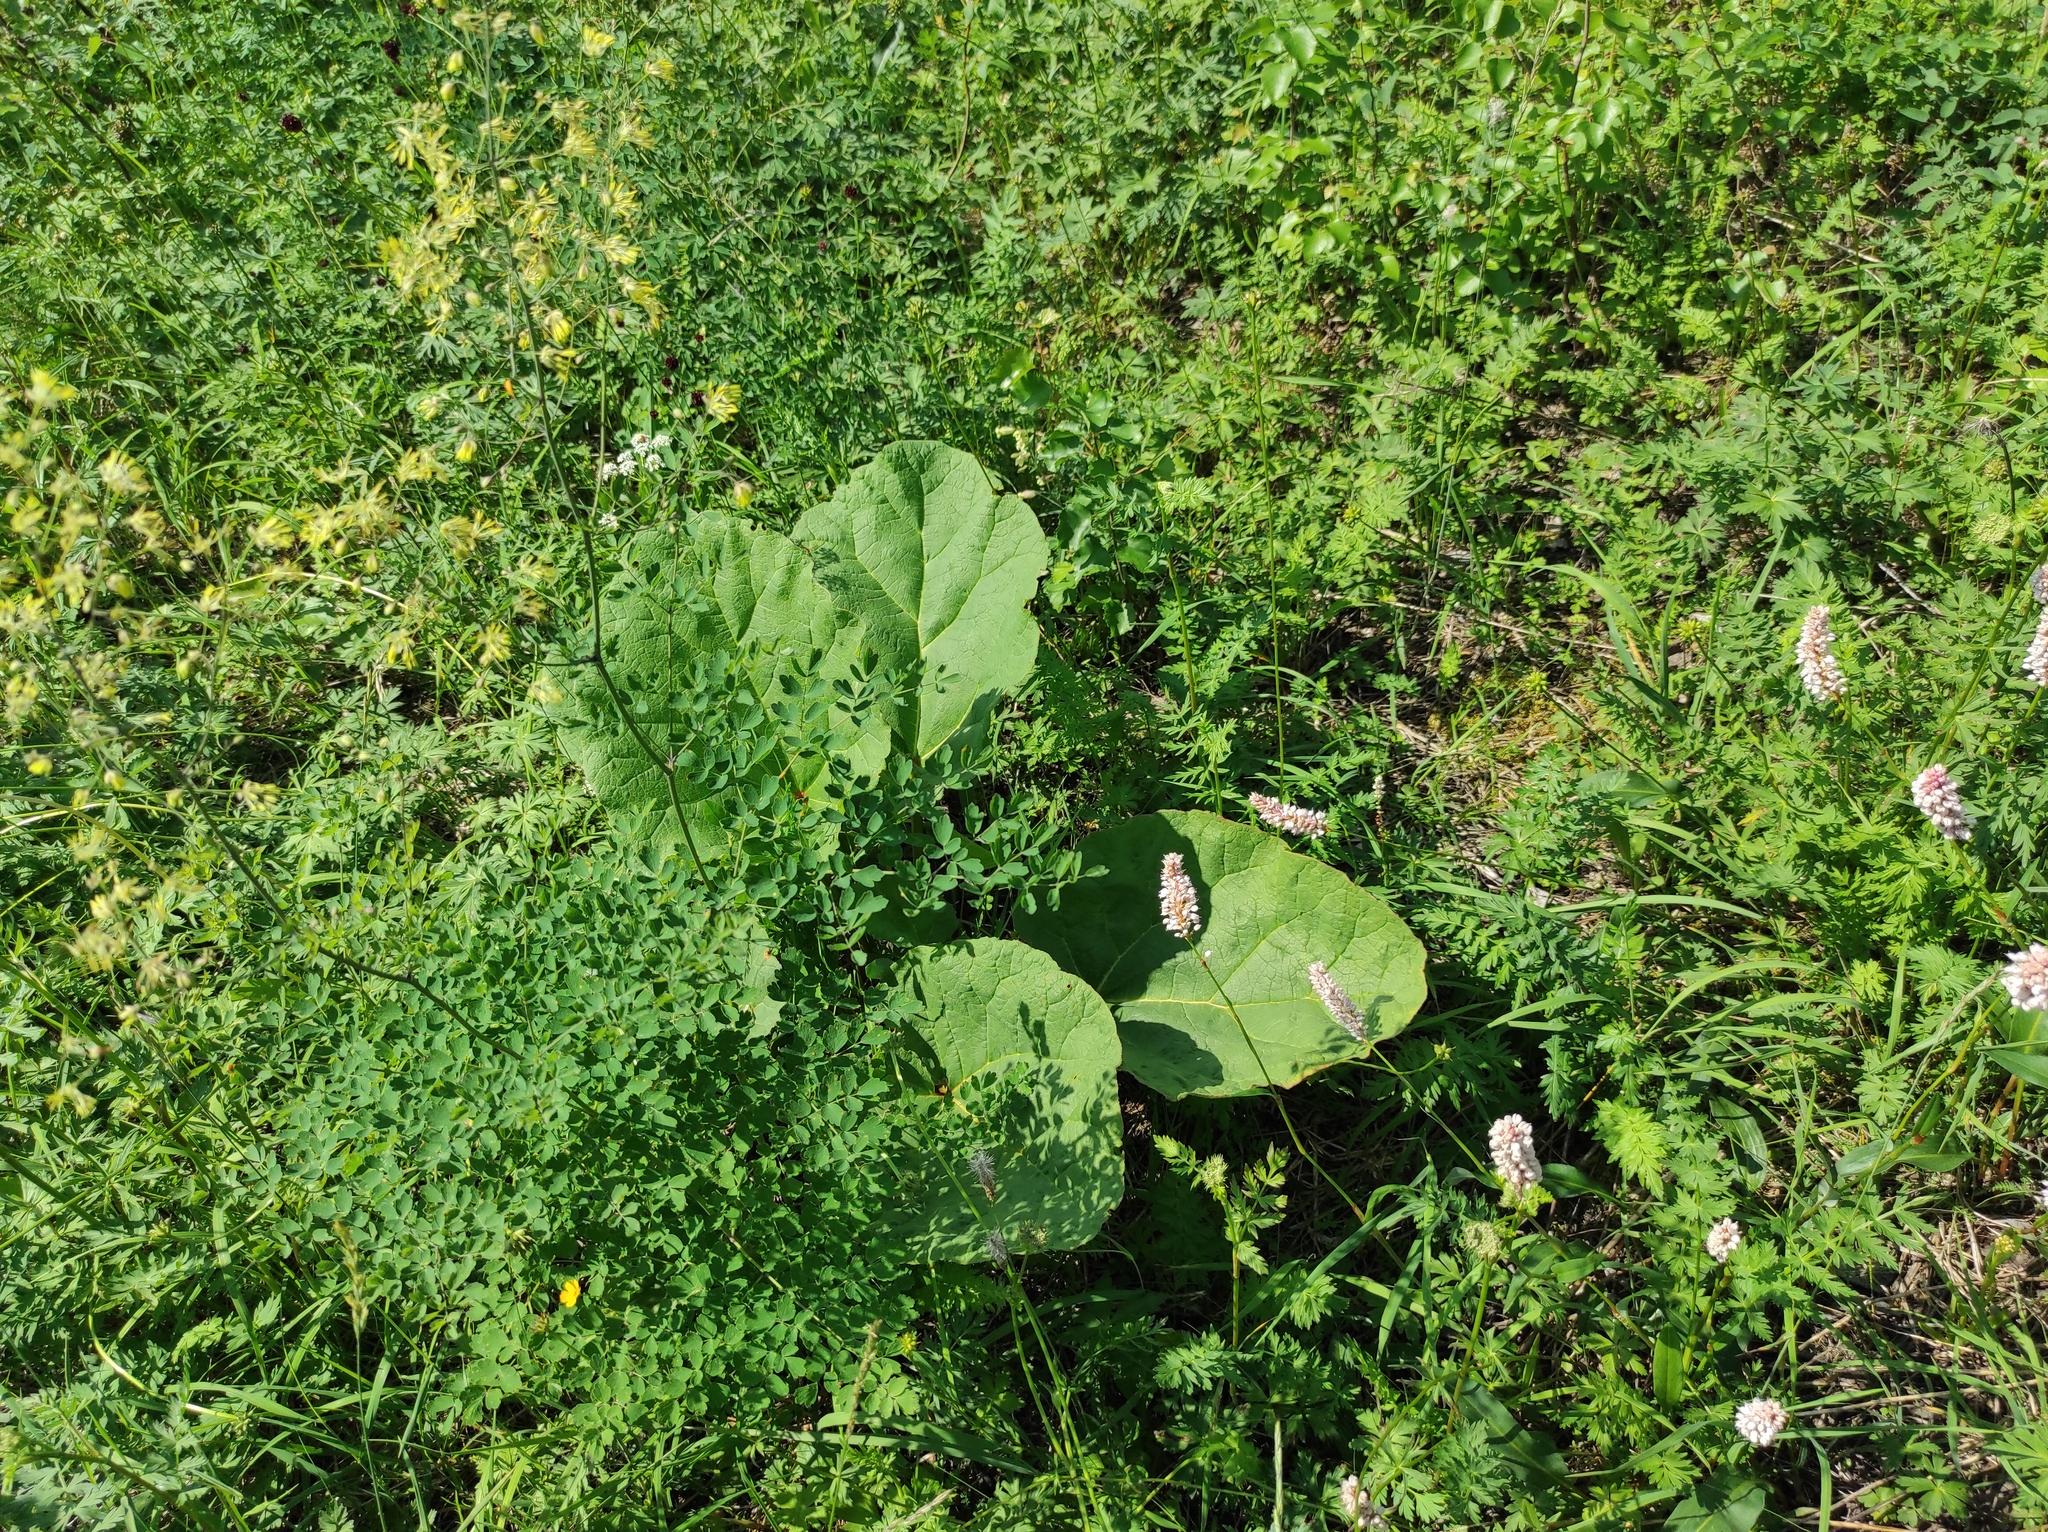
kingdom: Plantae
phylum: Tracheophyta
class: Magnoliopsida
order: Caryophyllales
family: Polygonaceae
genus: Rheum
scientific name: Rheum compactum
